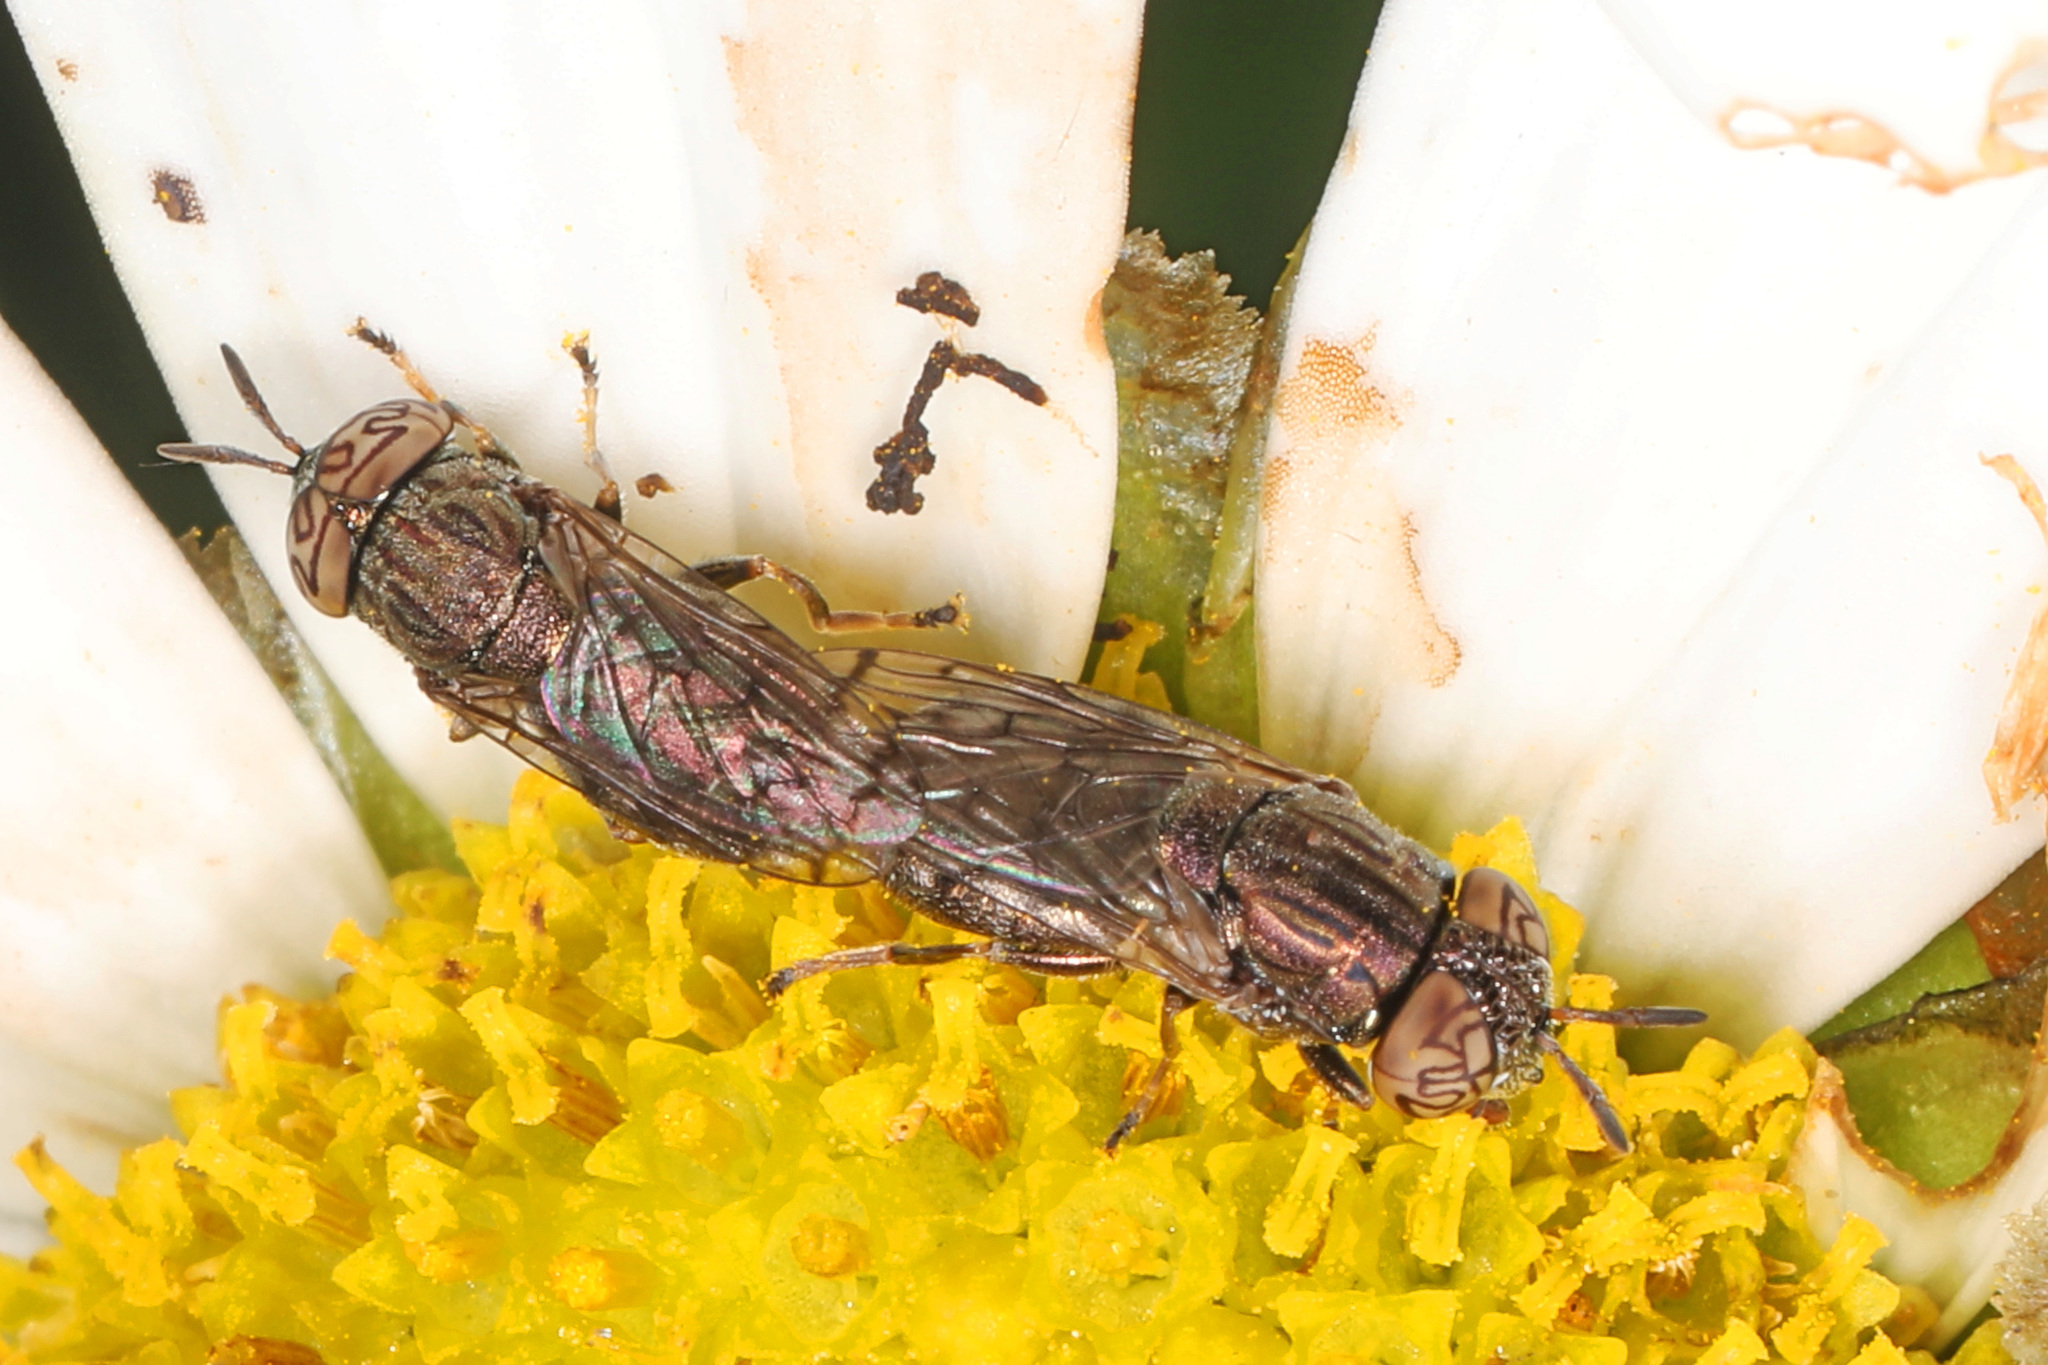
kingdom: Animalia
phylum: Arthropoda
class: Insecta
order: Diptera
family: Syrphidae
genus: Orthonevra
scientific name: Orthonevra nitida
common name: Wavy mucksucker
